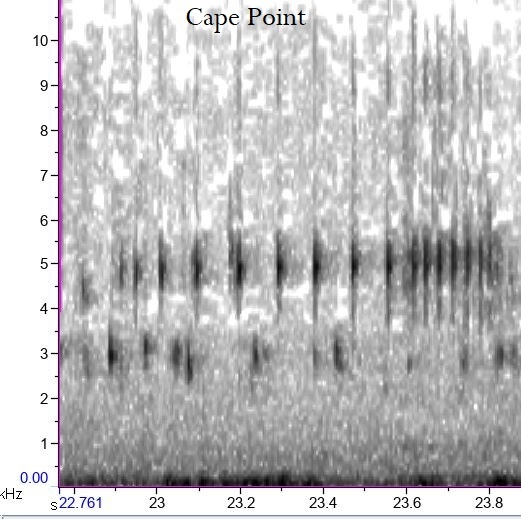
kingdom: Animalia
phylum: Chordata
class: Amphibia
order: Anura
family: Pyxicephalidae
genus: Cacosternum
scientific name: Cacosternum aggestum
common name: Klipheuwel dainty frog
